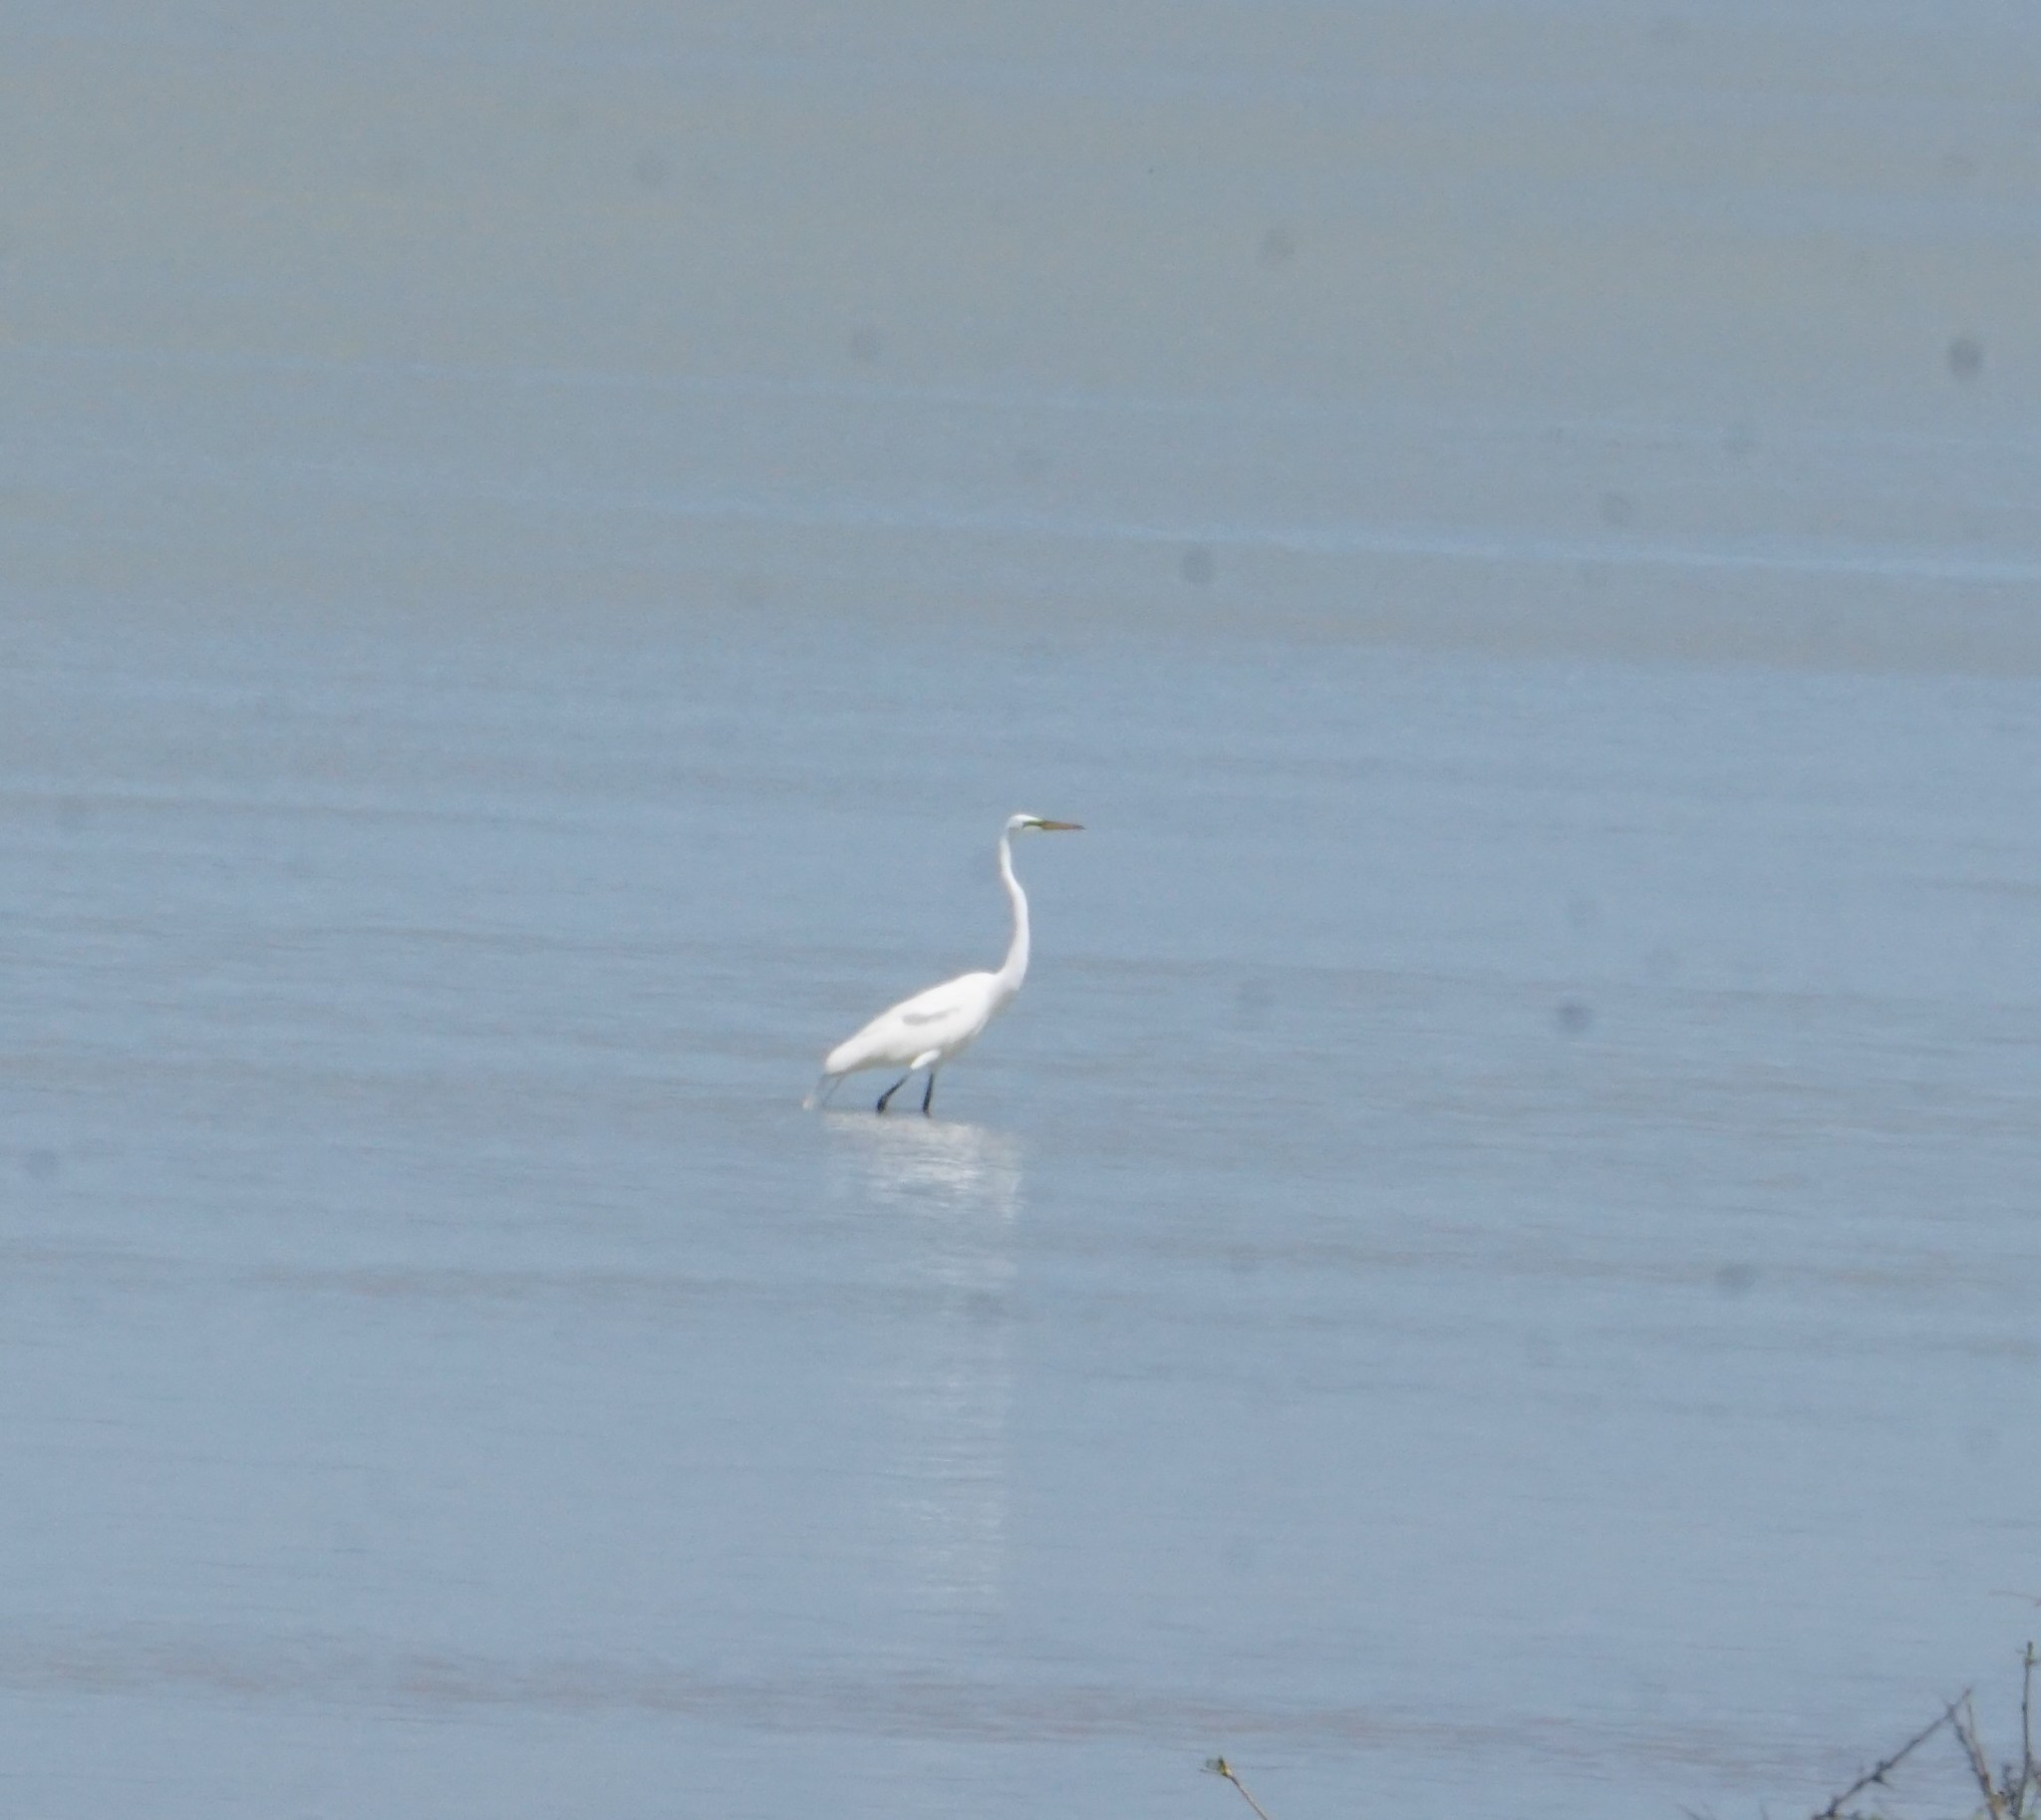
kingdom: Animalia
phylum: Chordata
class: Aves
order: Pelecaniformes
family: Ardeidae
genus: Ardea
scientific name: Ardea alba
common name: Great egret
